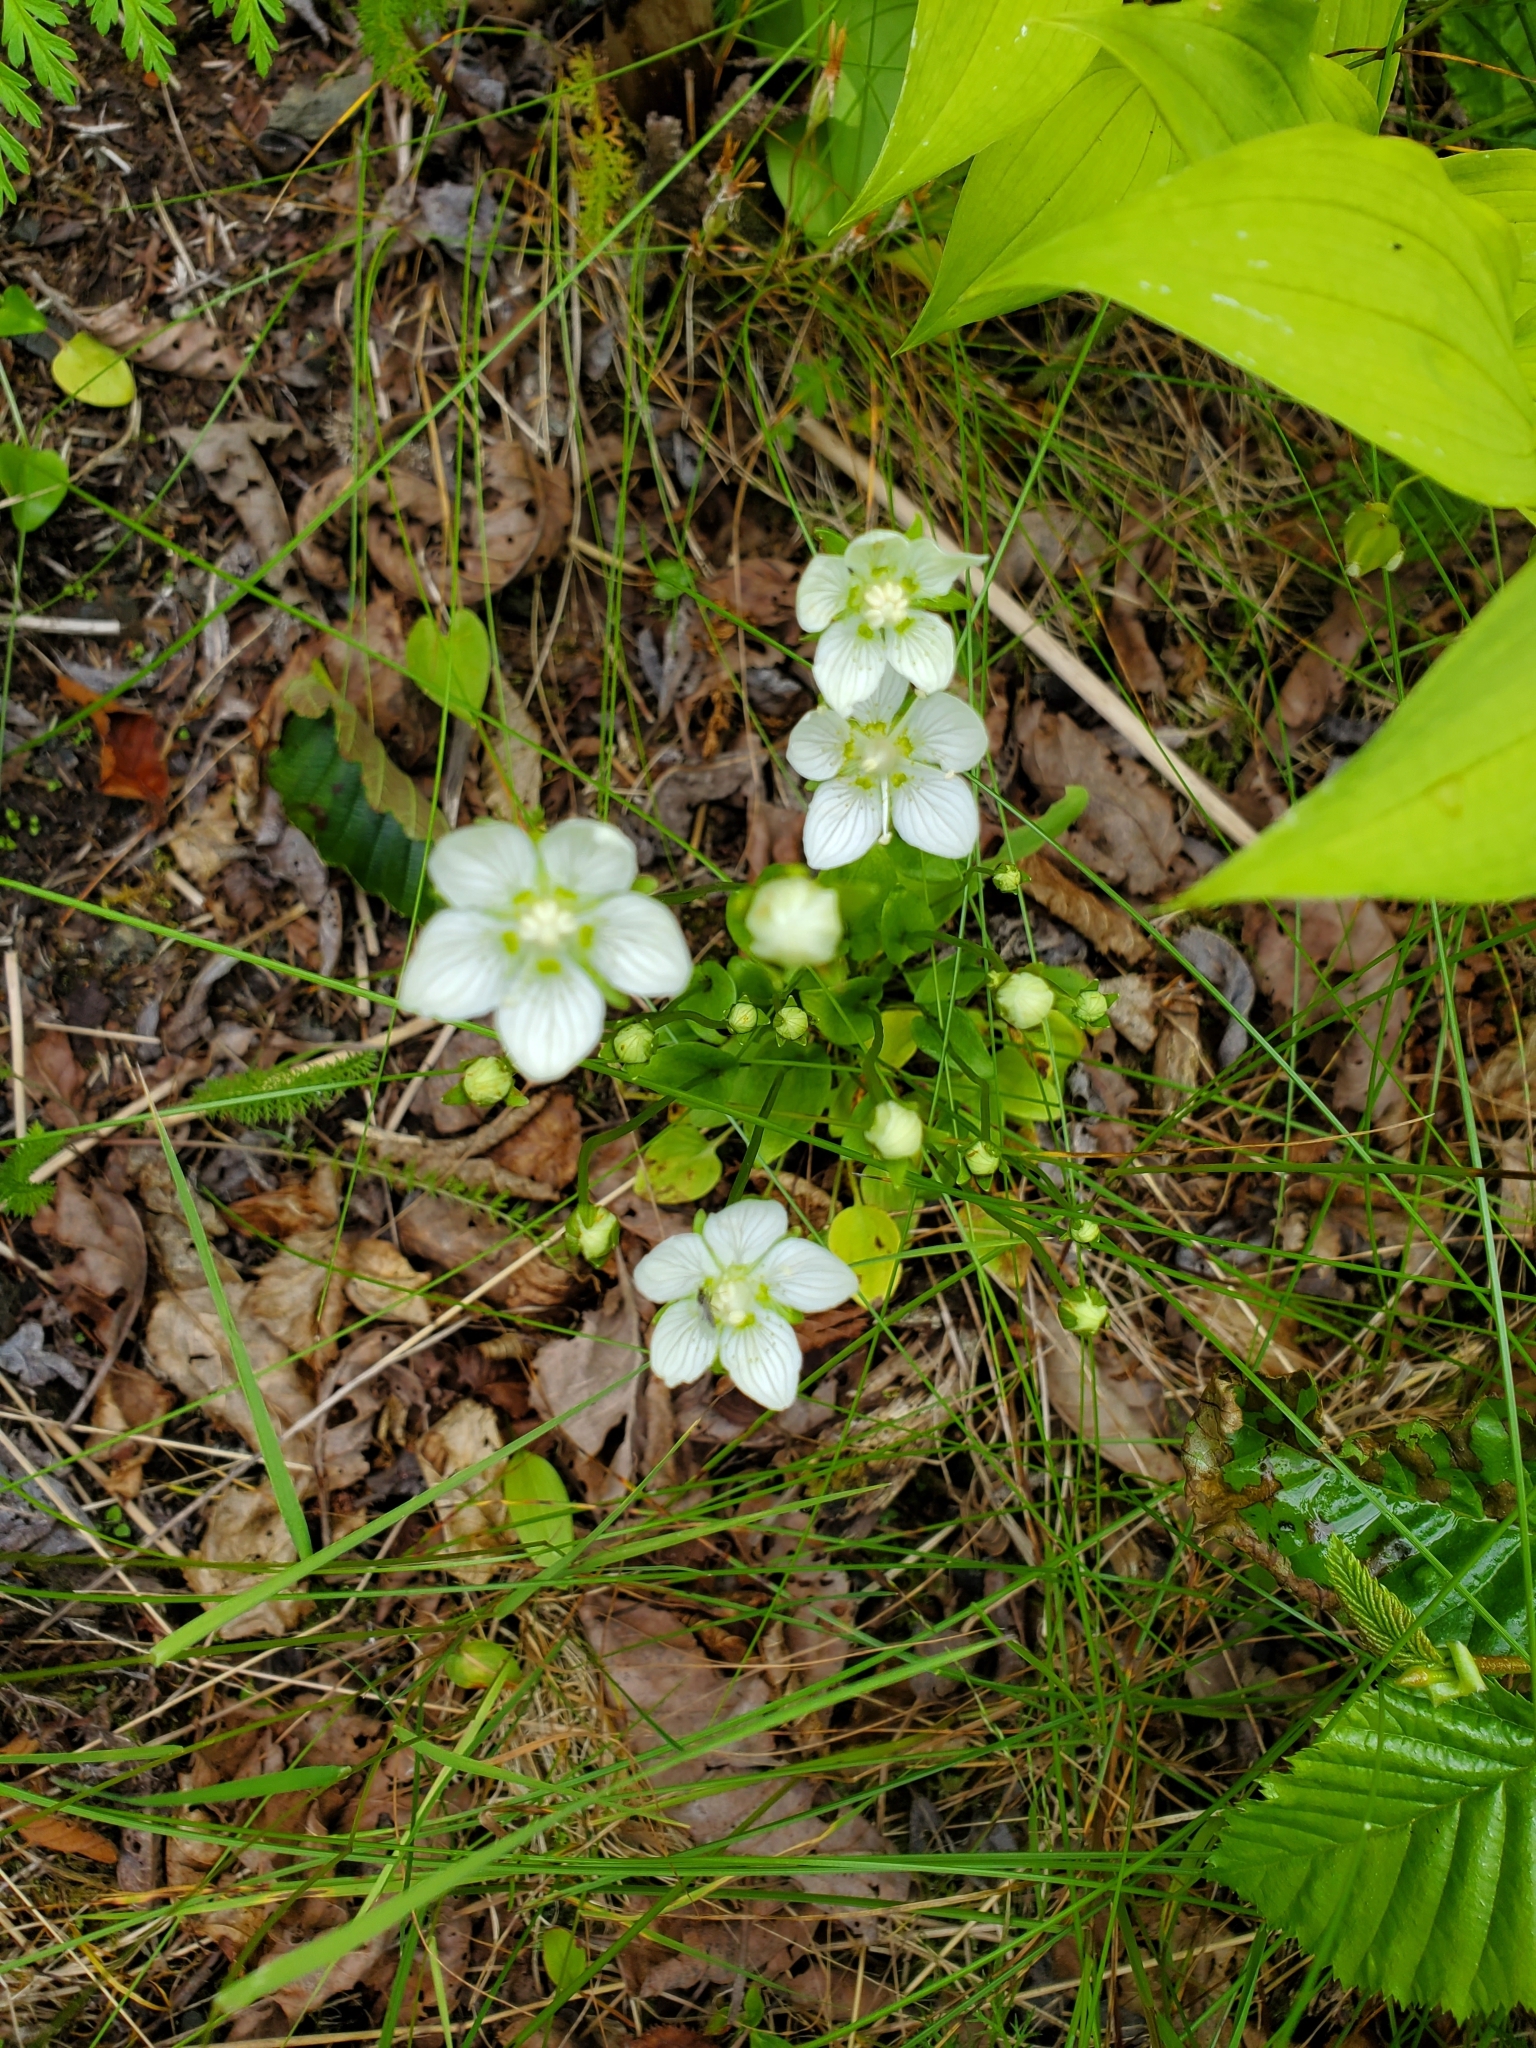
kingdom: Plantae
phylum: Tracheophyta
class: Magnoliopsida
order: Celastrales
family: Parnassiaceae
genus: Parnassia
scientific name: Parnassia palustris
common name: Grass-of-parnassus
